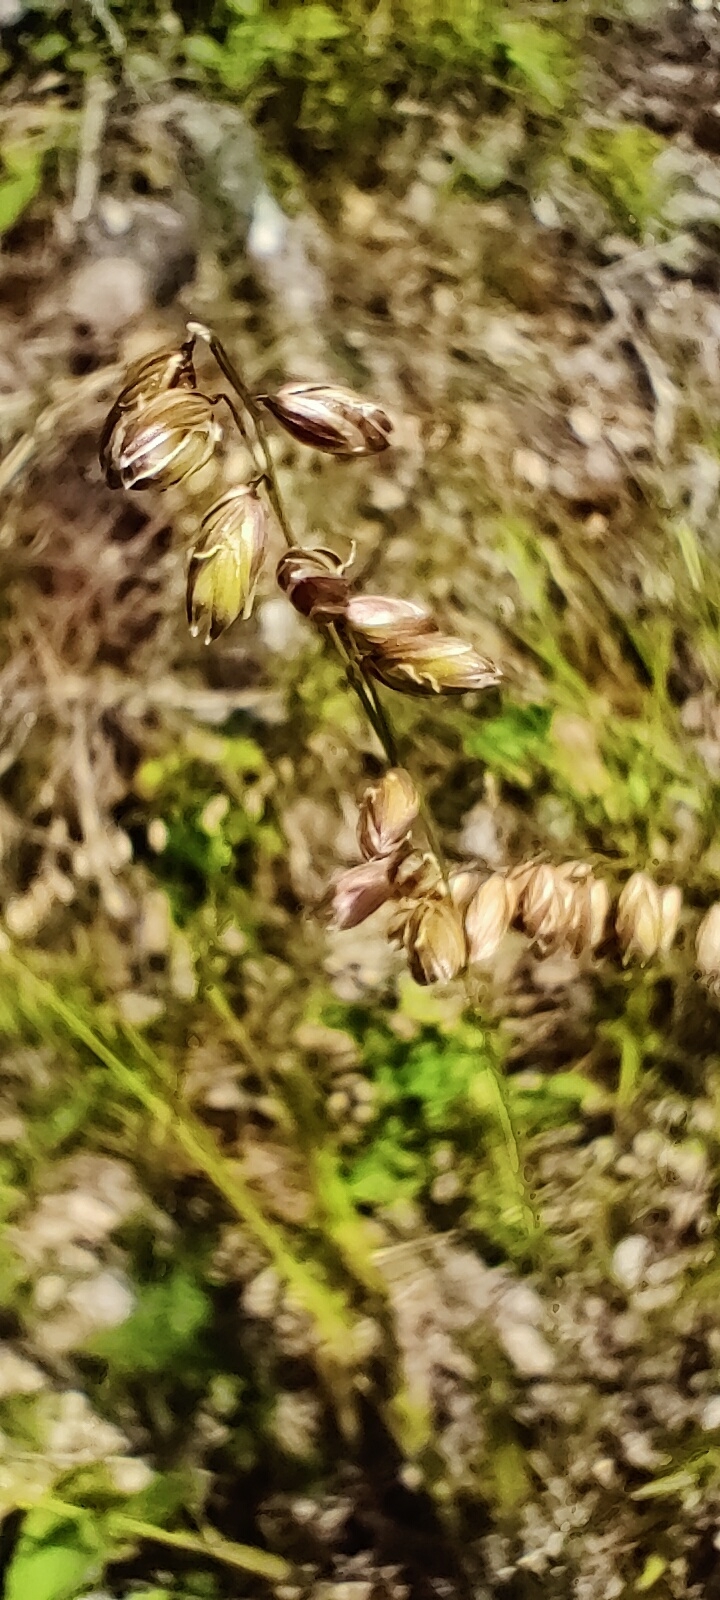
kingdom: Plantae
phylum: Tracheophyta
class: Liliopsida
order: Poales
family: Poaceae
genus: Melica
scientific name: Melica nutans
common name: Mountain melick
